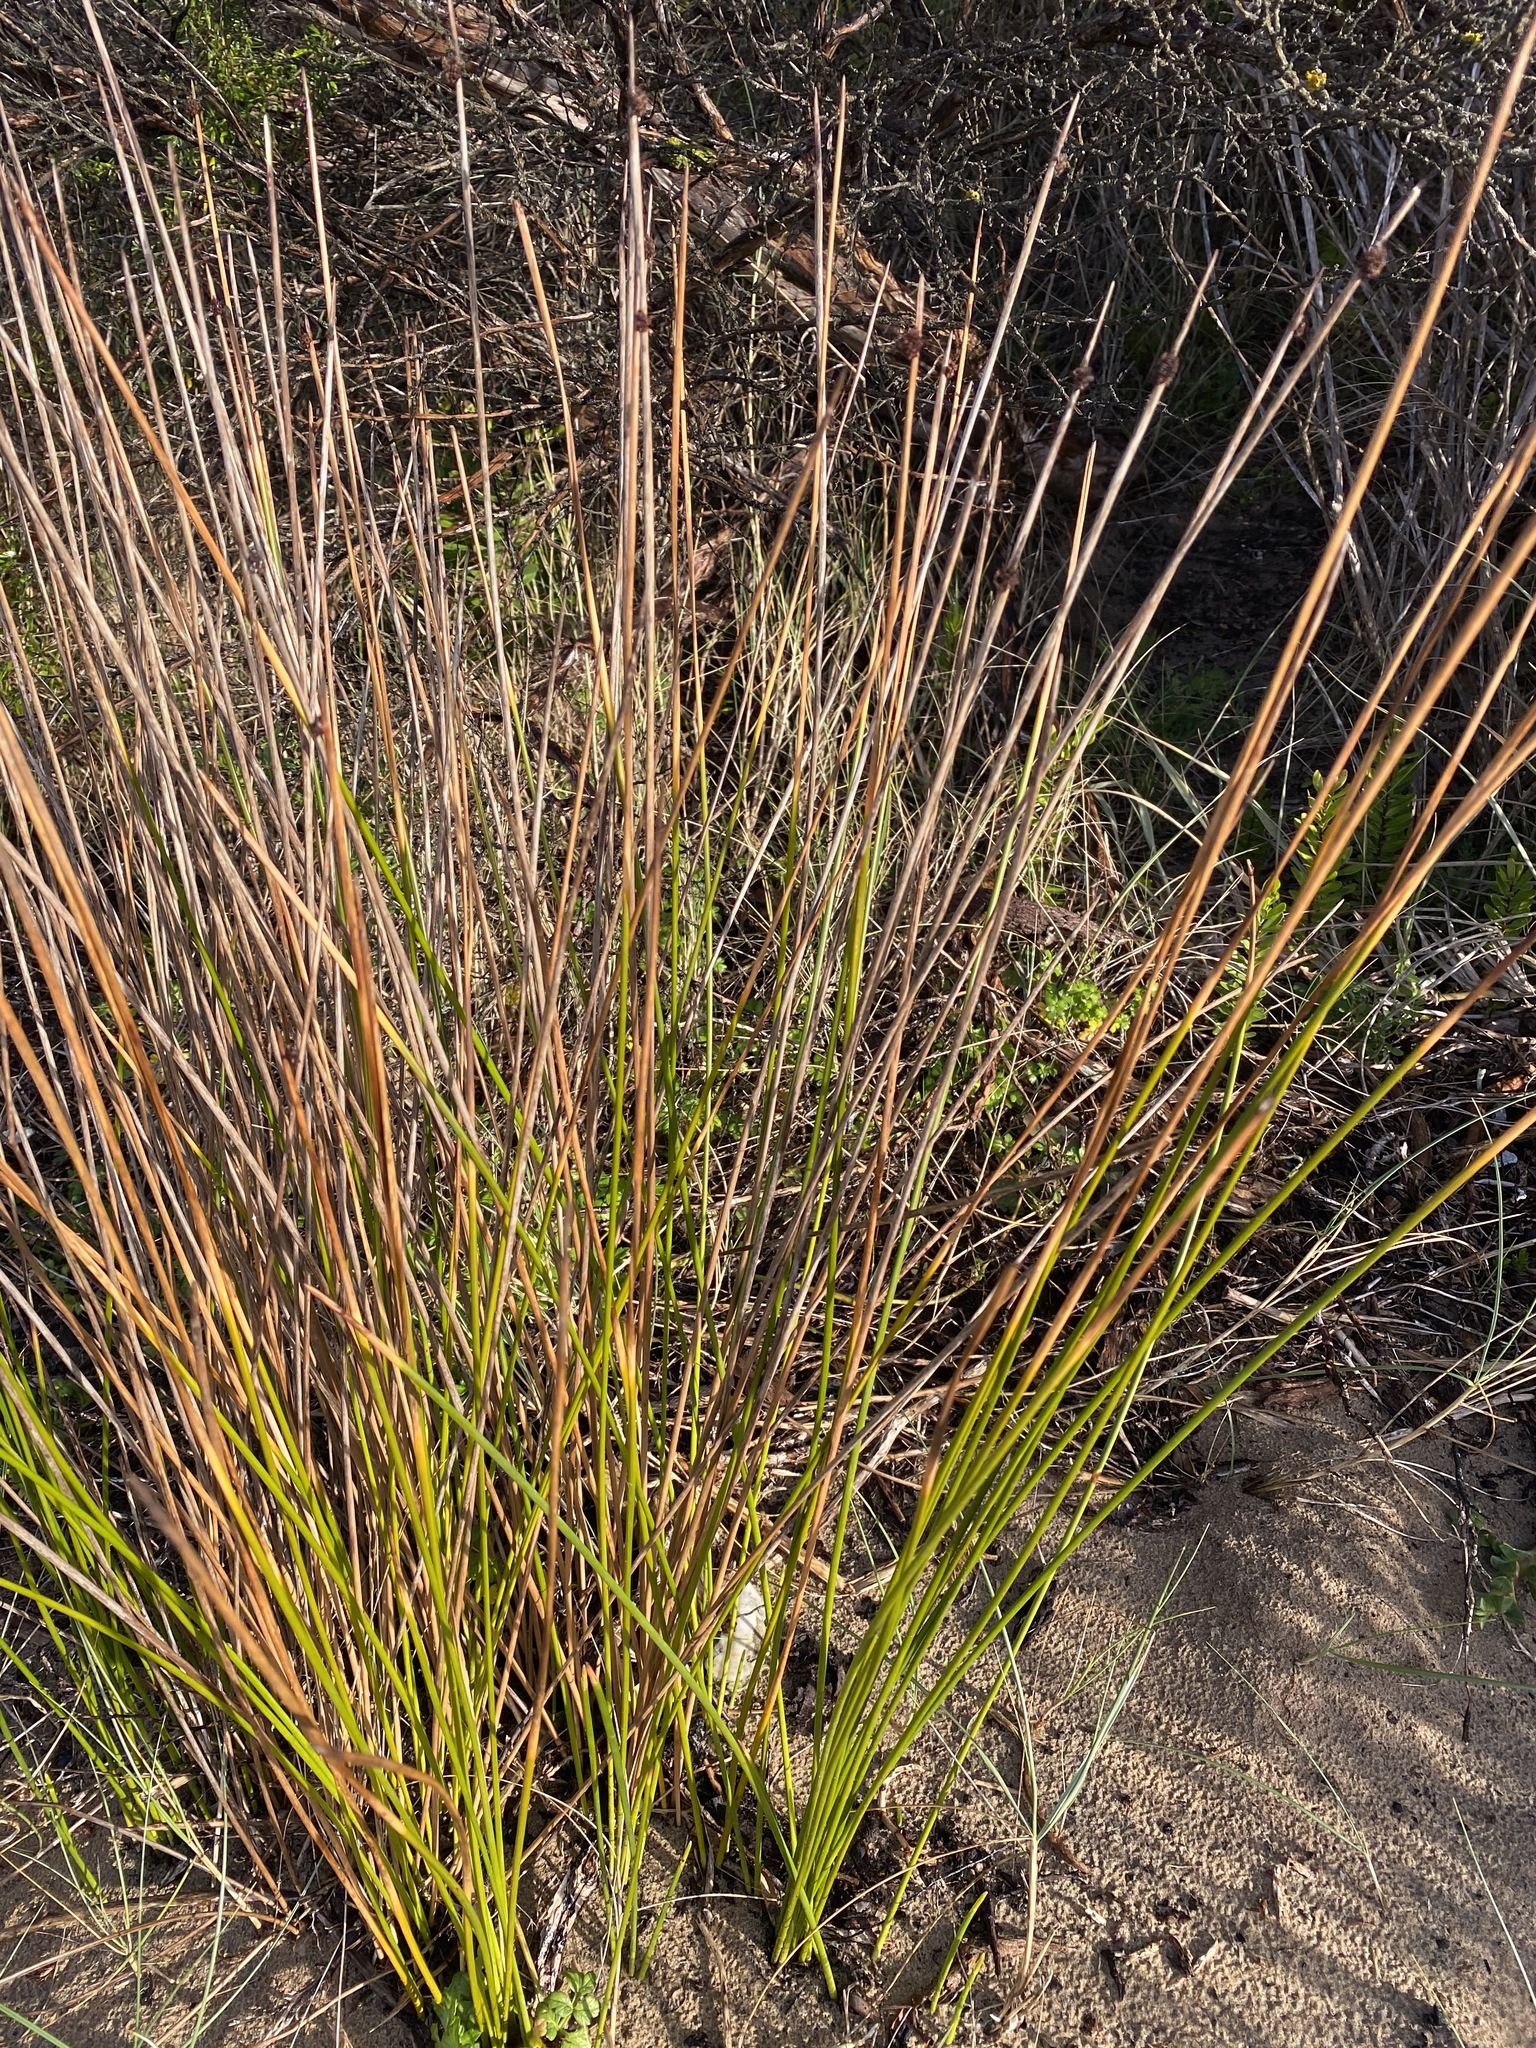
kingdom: Plantae
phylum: Tracheophyta
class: Liliopsida
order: Poales
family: Cyperaceae
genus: Ficinia
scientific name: Ficinia nodosa
